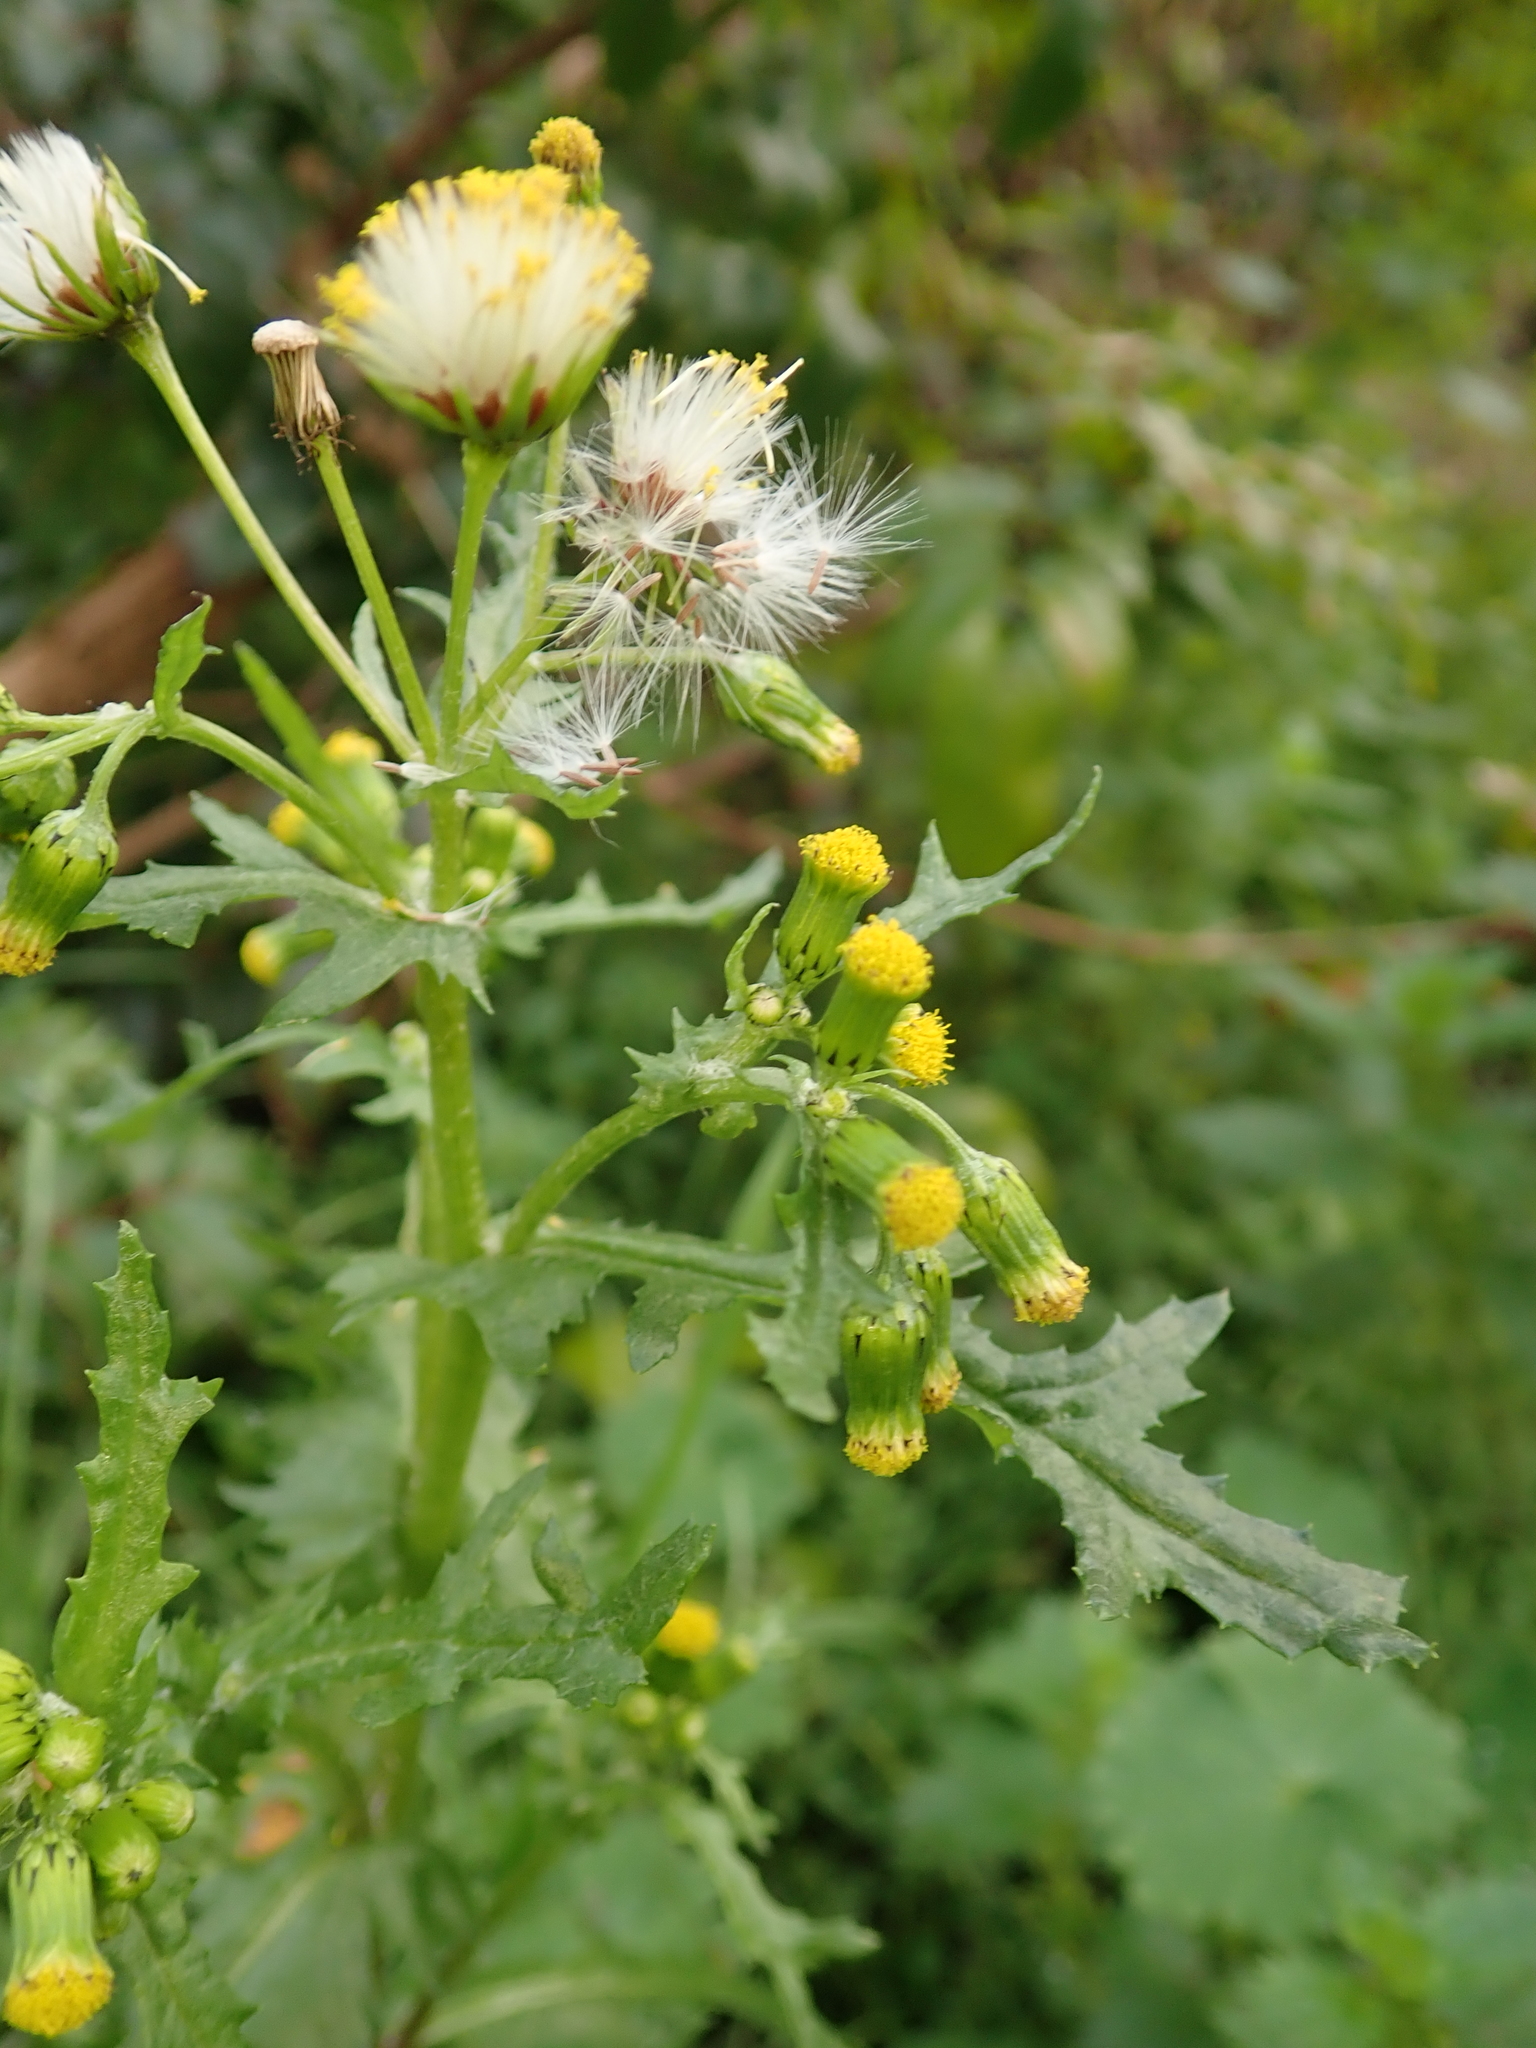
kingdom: Plantae
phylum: Tracheophyta
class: Magnoliopsida
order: Asterales
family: Asteraceae
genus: Senecio
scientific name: Senecio vulgaris
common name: Old-man-in-the-spring
